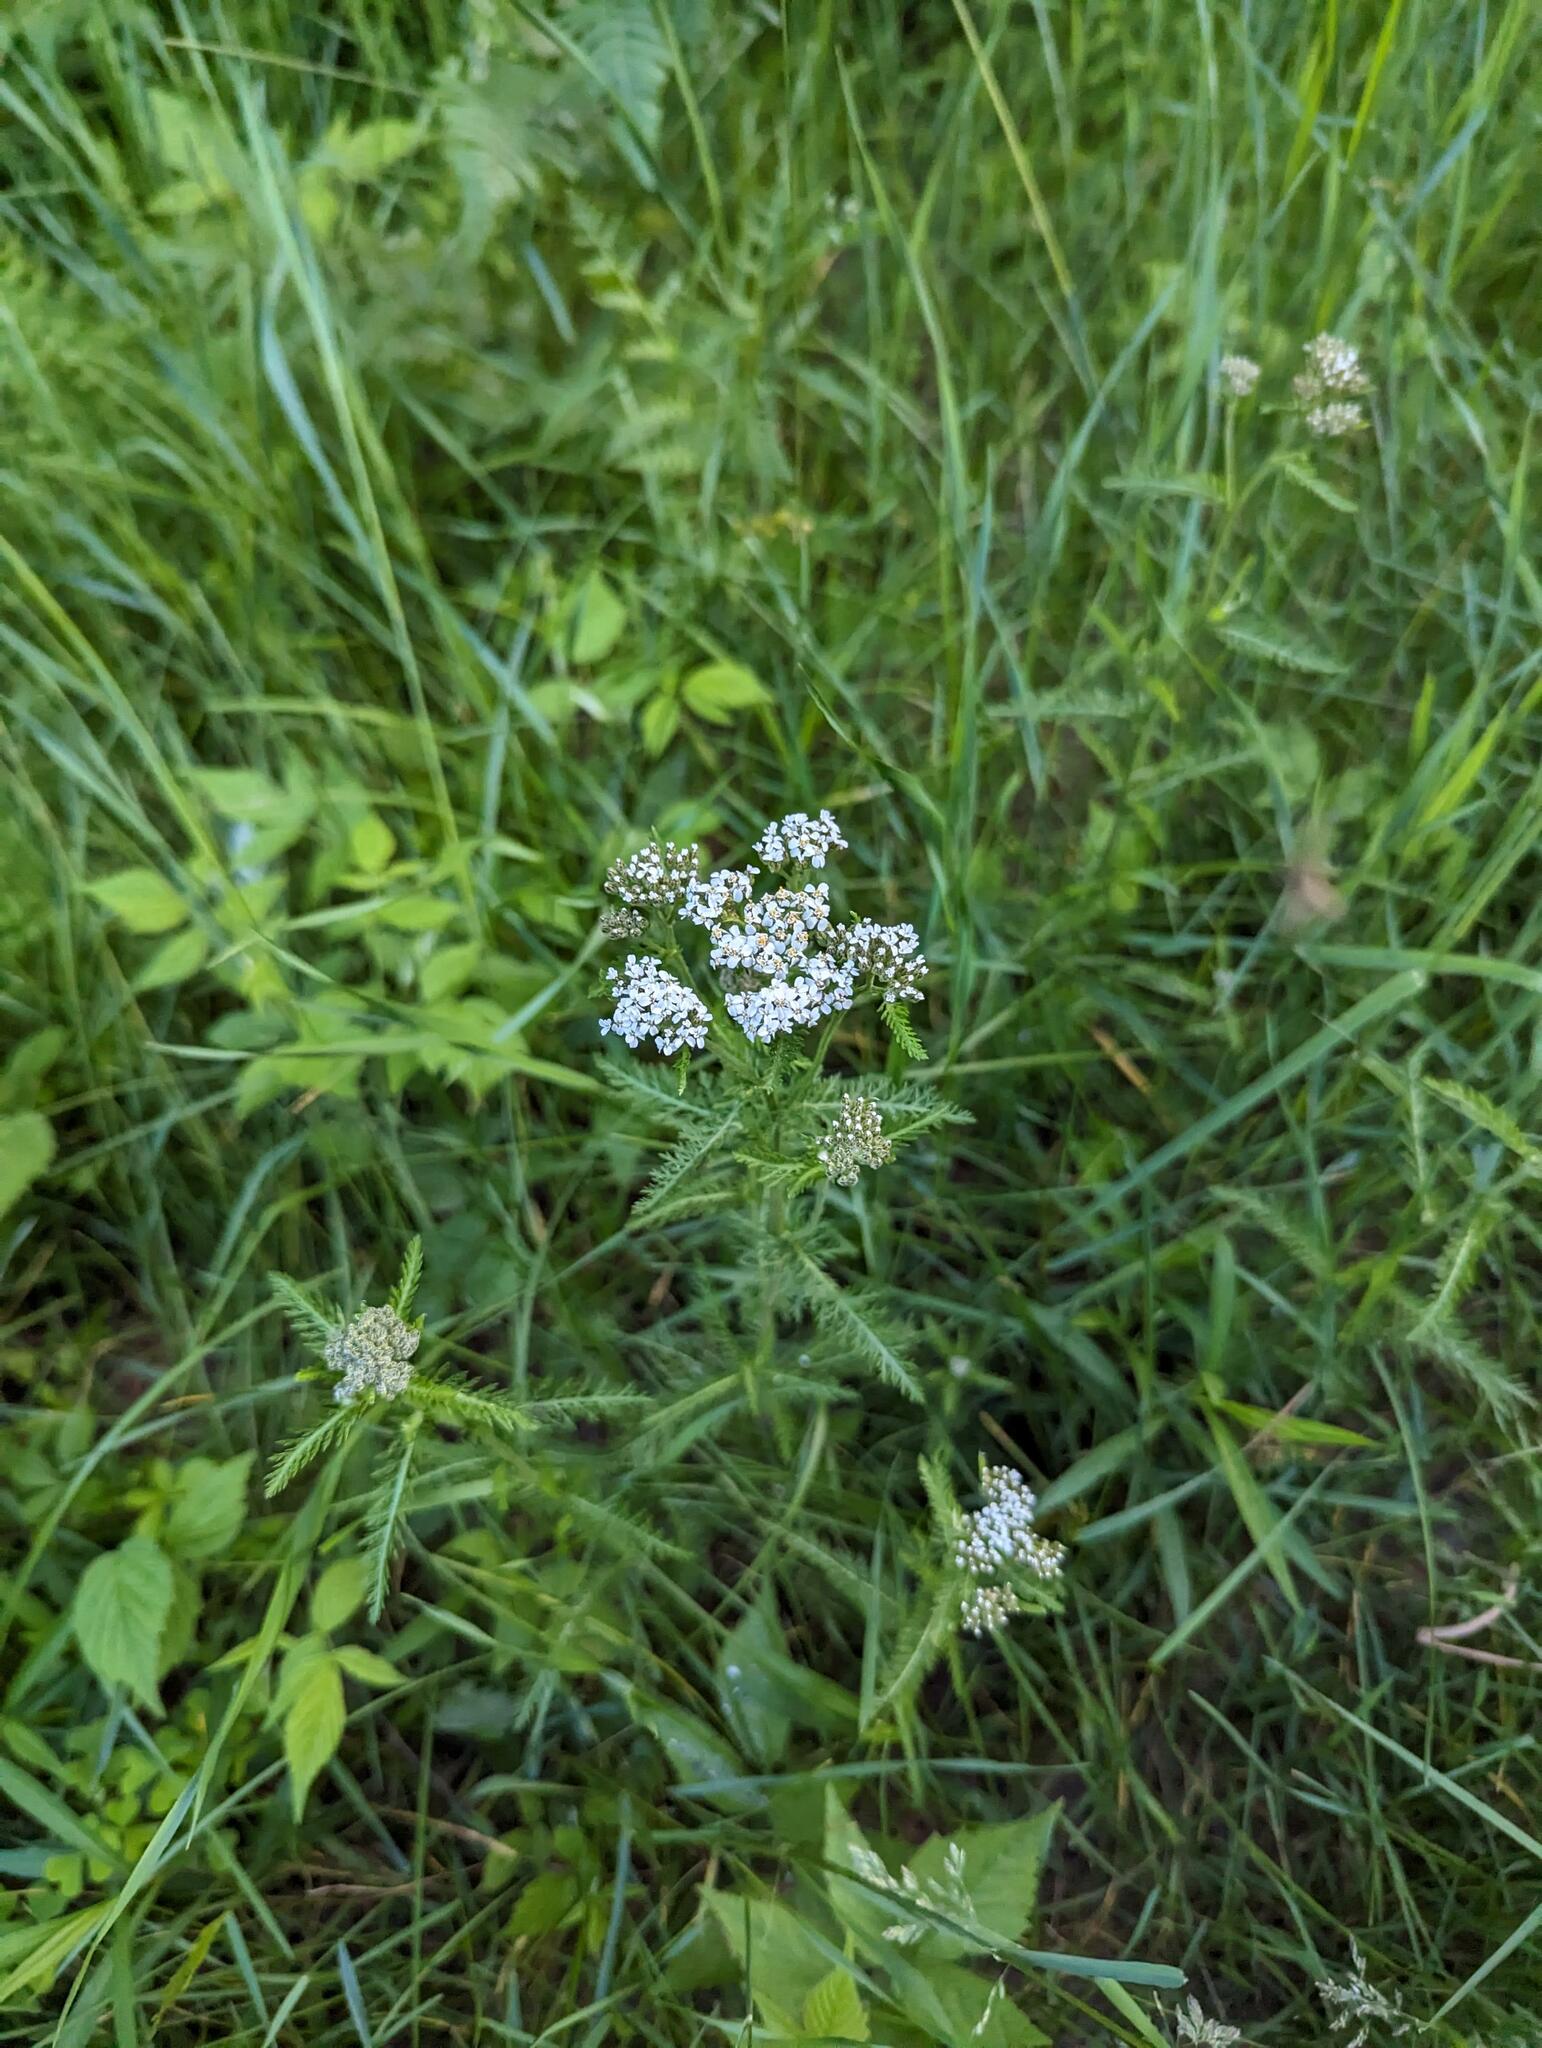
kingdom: Plantae
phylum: Tracheophyta
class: Magnoliopsida
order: Asterales
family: Asteraceae
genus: Achillea
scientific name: Achillea millefolium
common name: Yarrow
